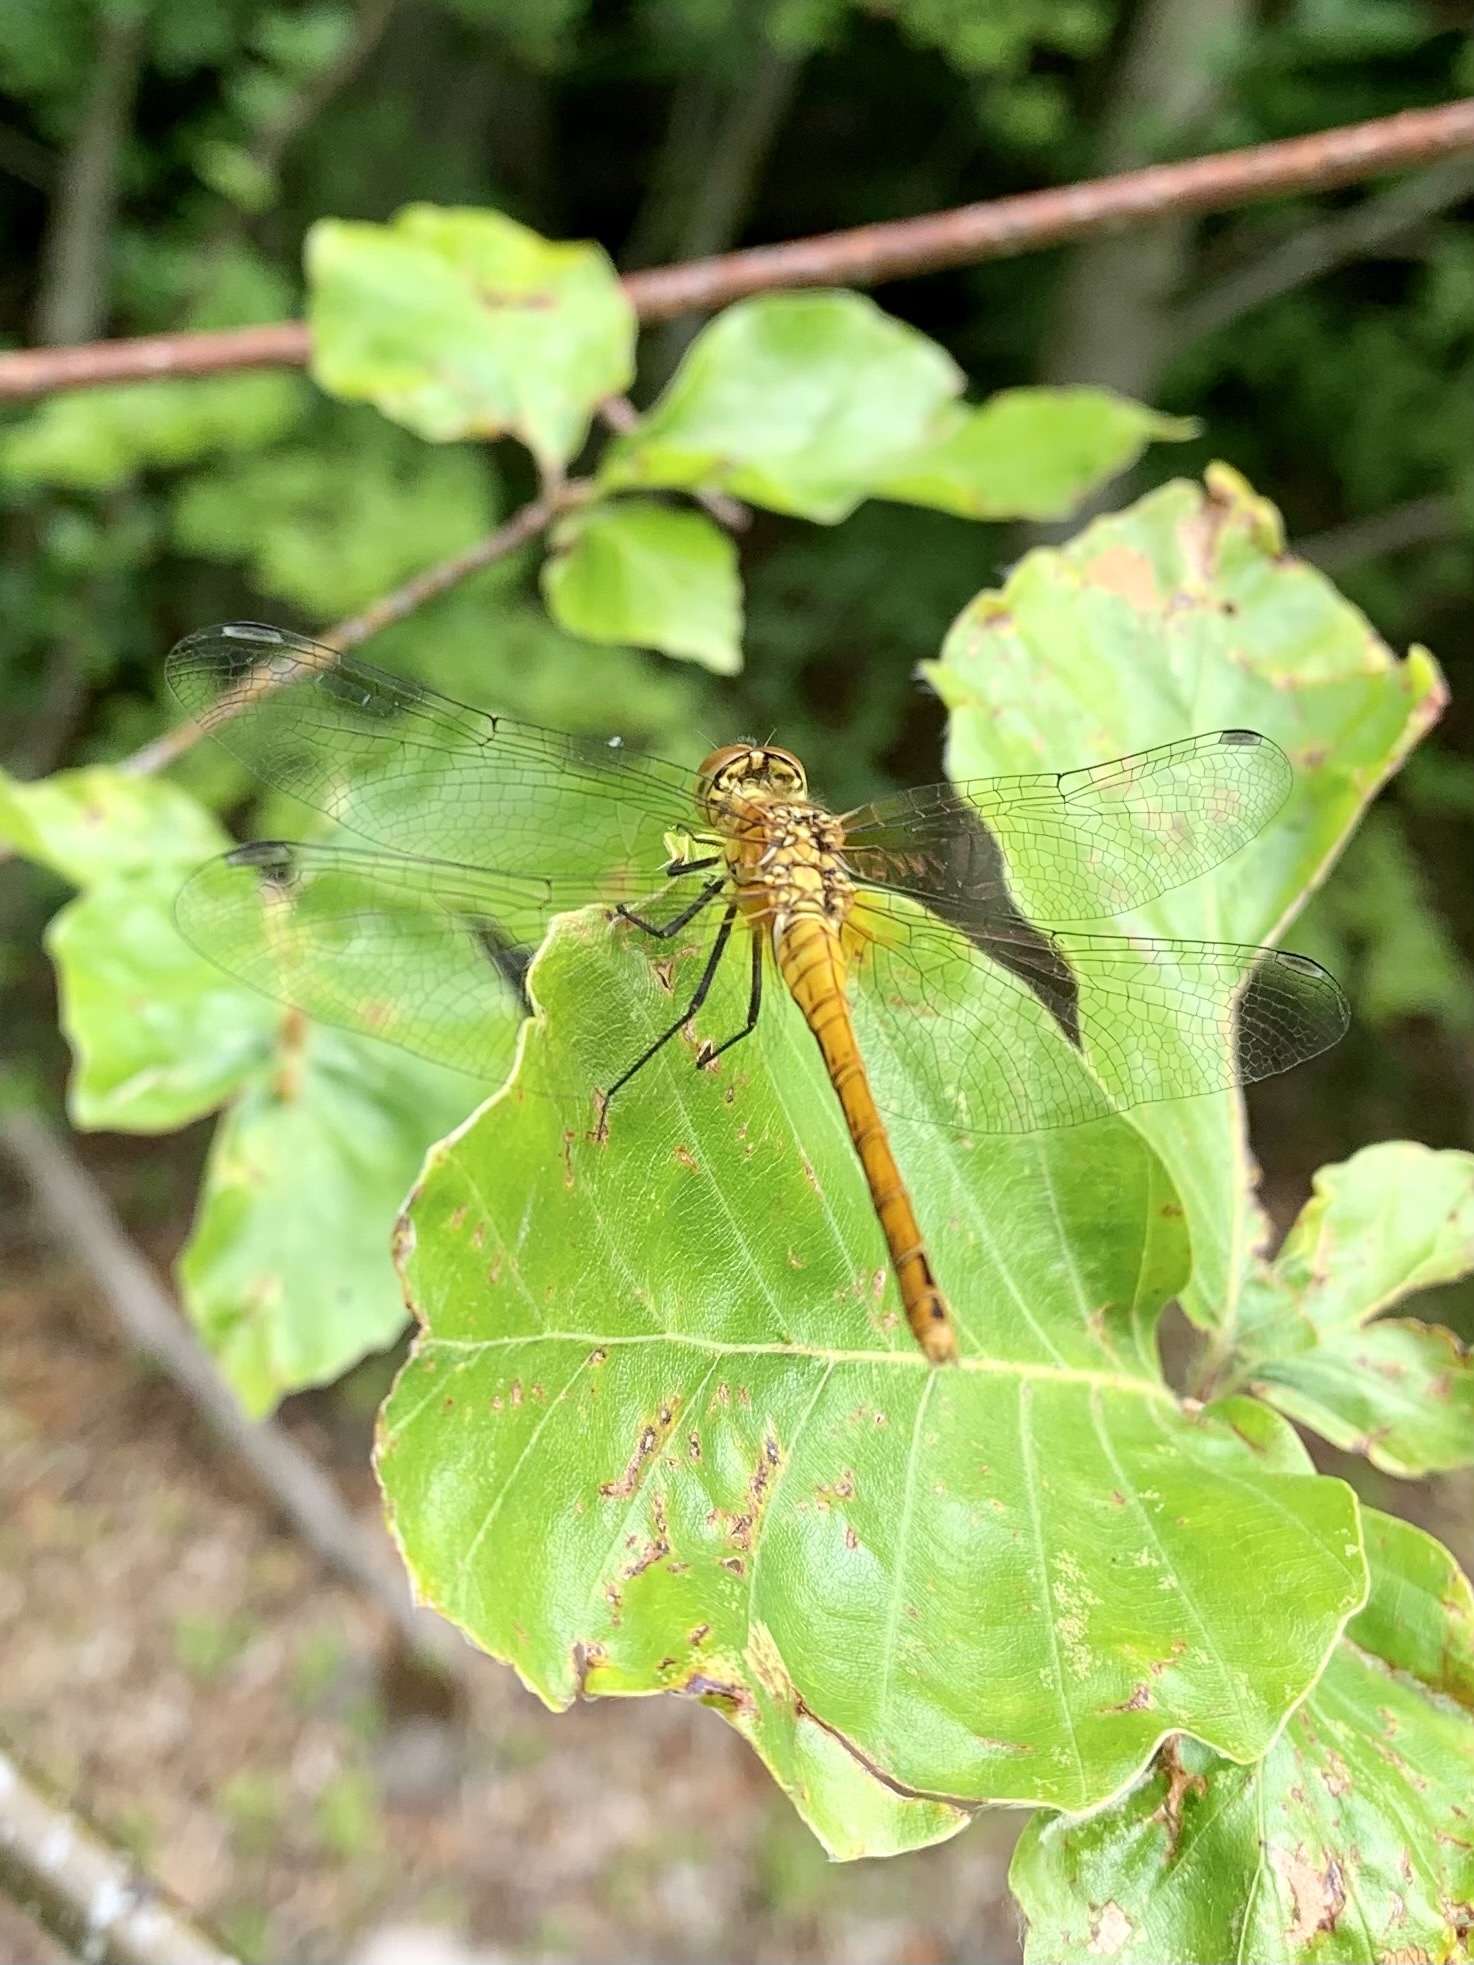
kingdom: Animalia
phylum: Arthropoda
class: Insecta
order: Odonata
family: Libellulidae
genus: Sympetrum
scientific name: Sympetrum sanguineum
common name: Ruddy darter
